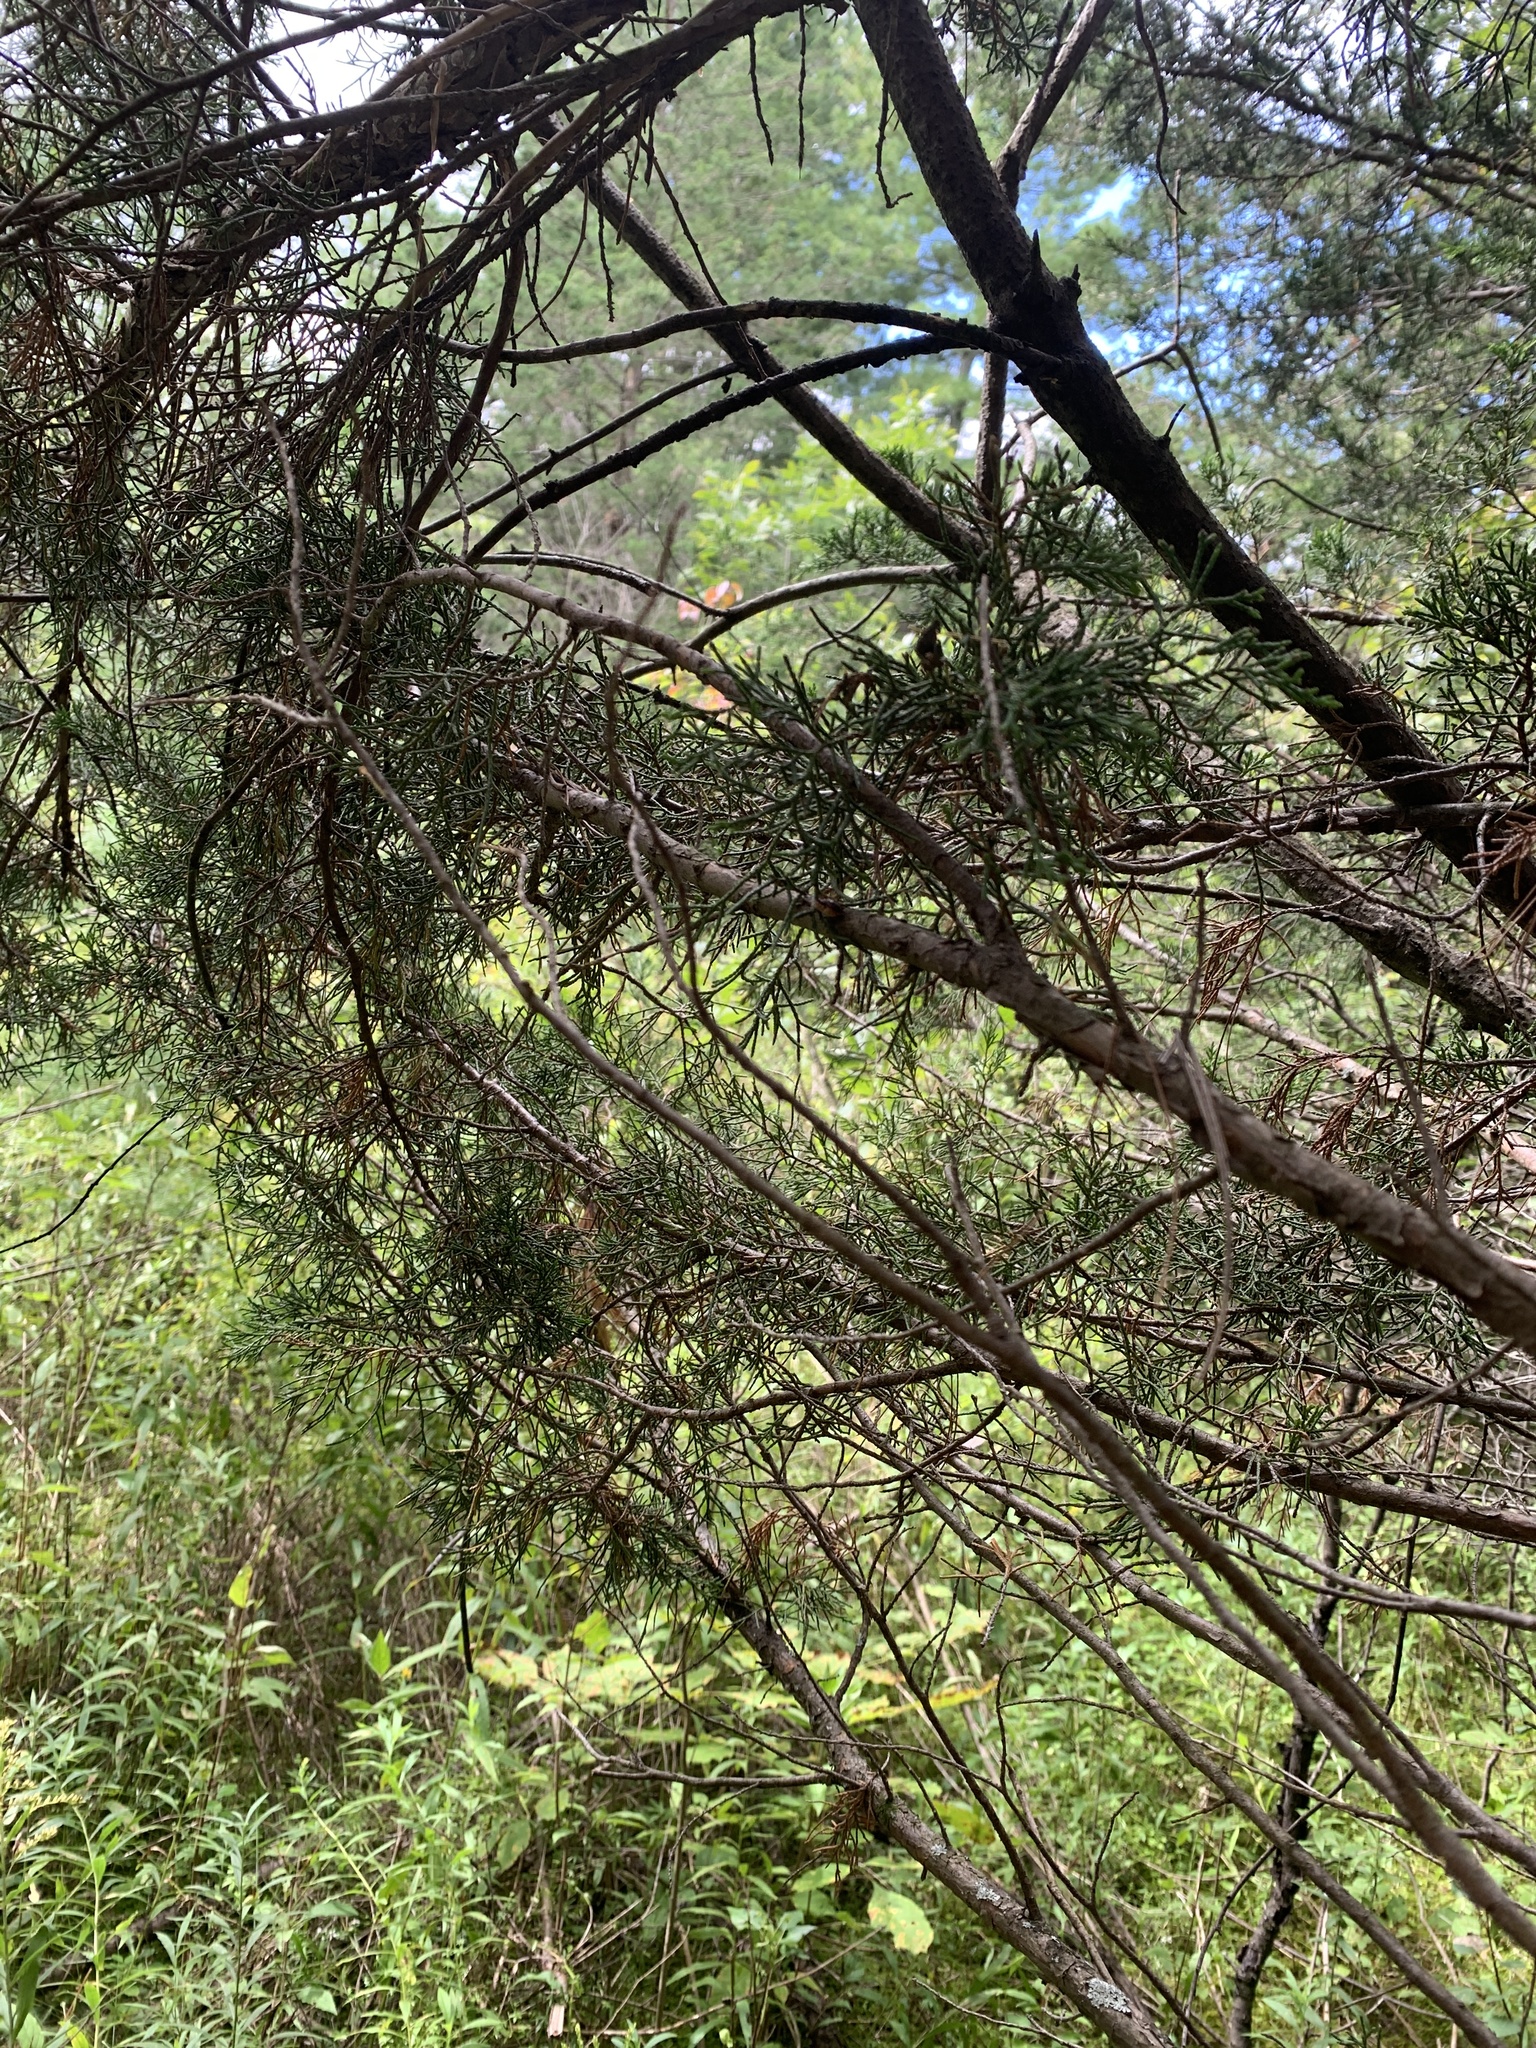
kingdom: Plantae
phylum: Tracheophyta
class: Pinopsida
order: Pinales
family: Cupressaceae
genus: Juniperus
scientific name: Juniperus virginiana
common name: Red juniper
